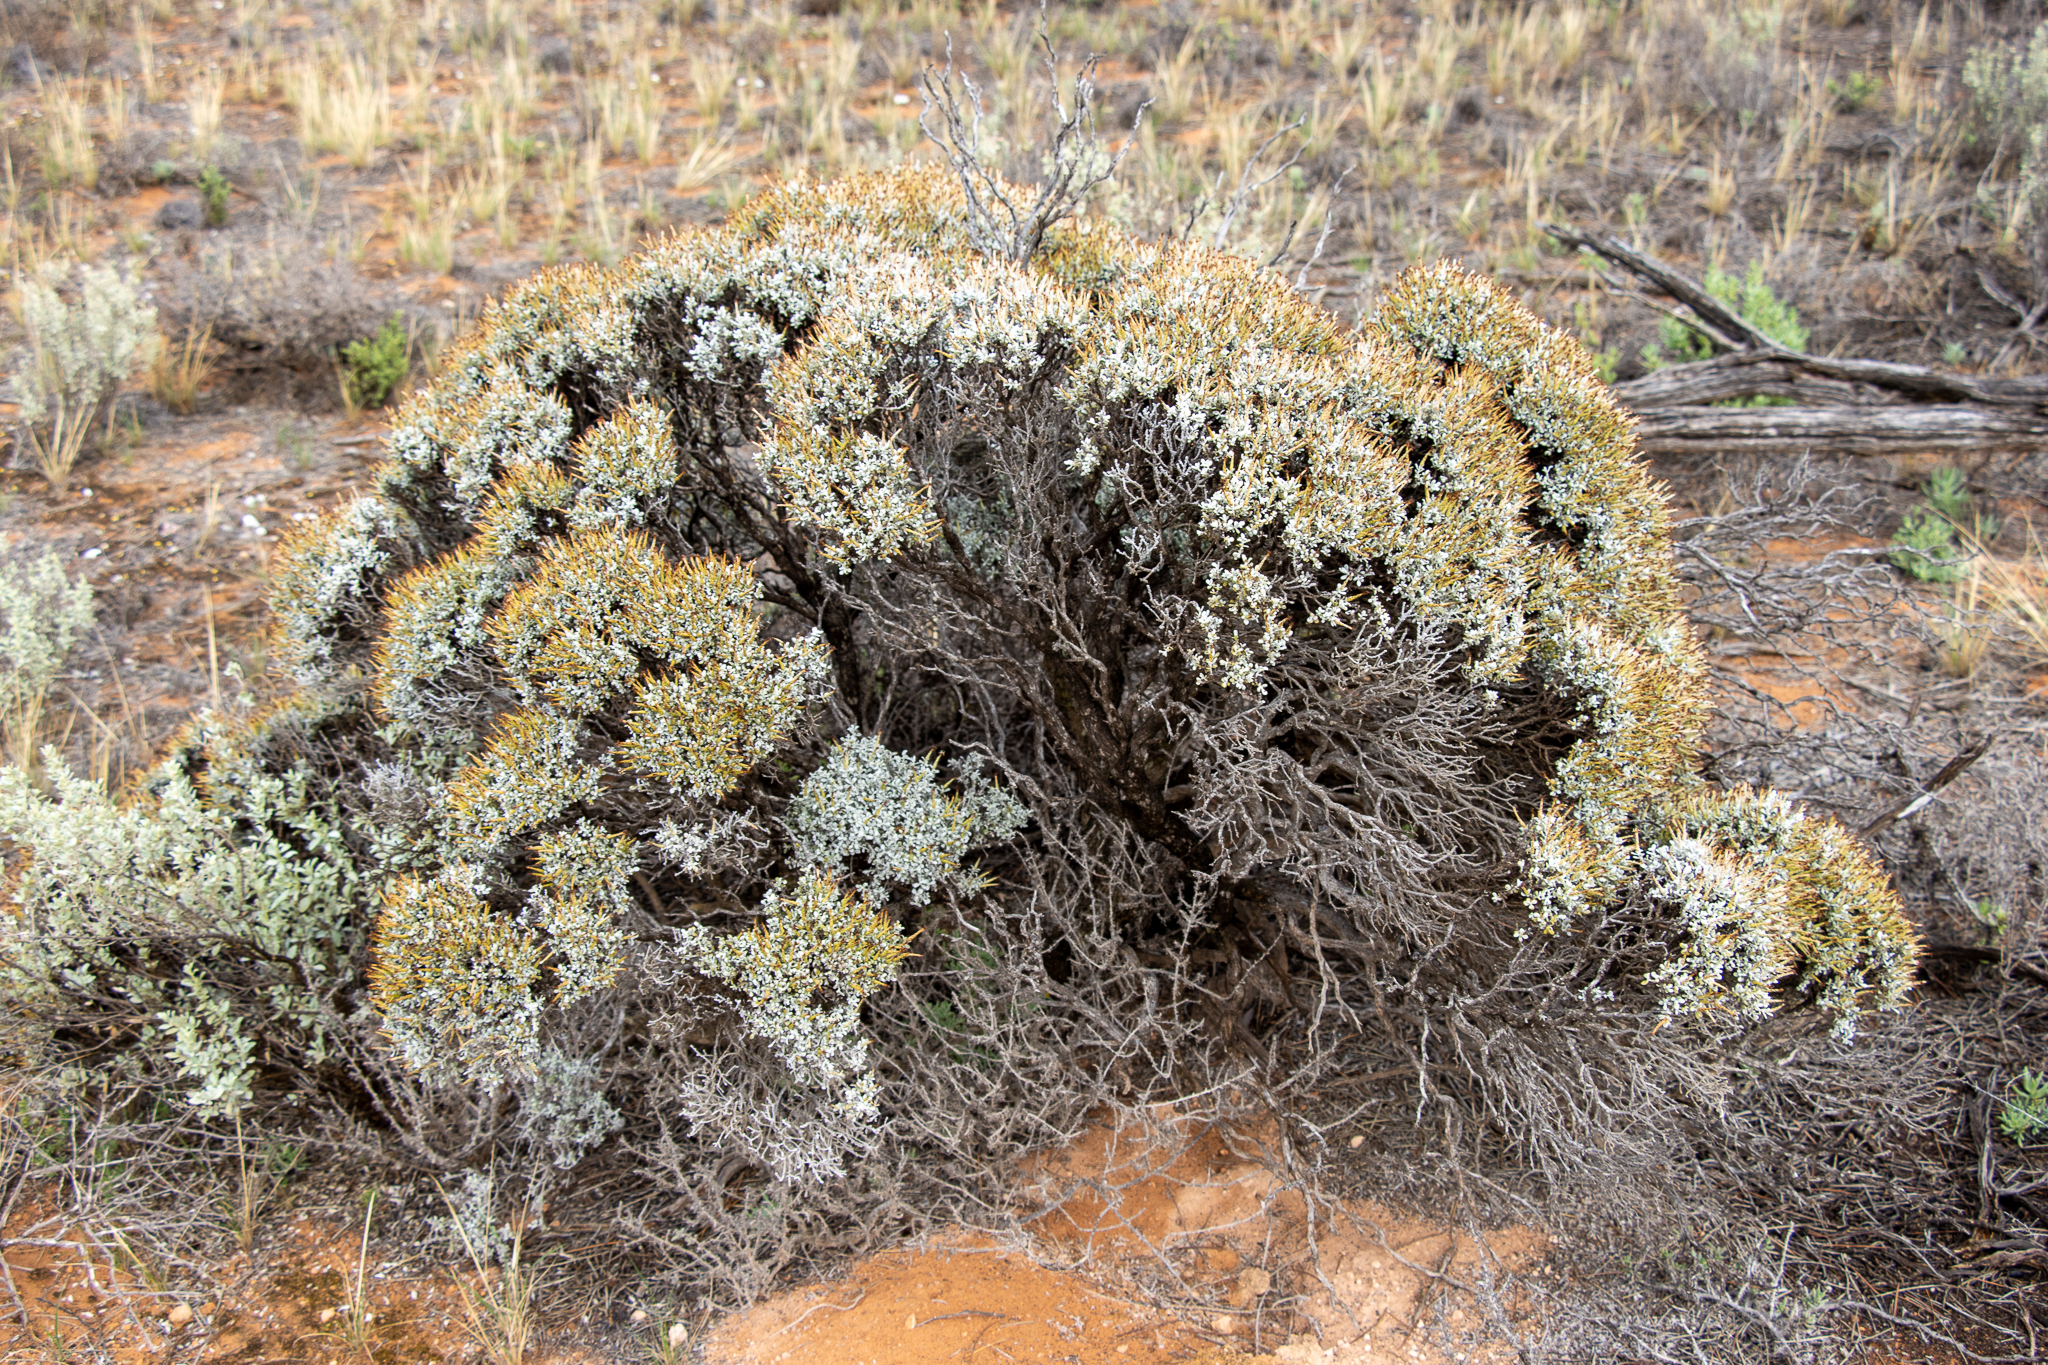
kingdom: Plantae
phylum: Tracheophyta
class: Magnoliopsida
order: Asterales
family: Asteraceae
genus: Cratystylis
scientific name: Cratystylis conocephala
